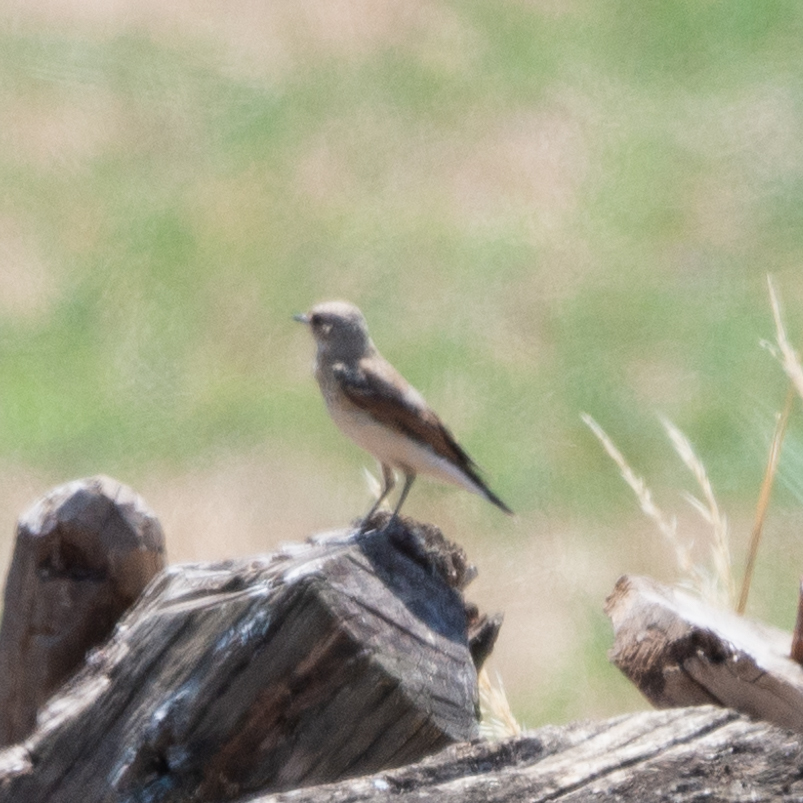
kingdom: Animalia
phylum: Chordata
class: Aves
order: Passeriformes
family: Muscicapidae
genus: Oenanthe
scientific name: Oenanthe oenanthe
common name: Northern wheatear
